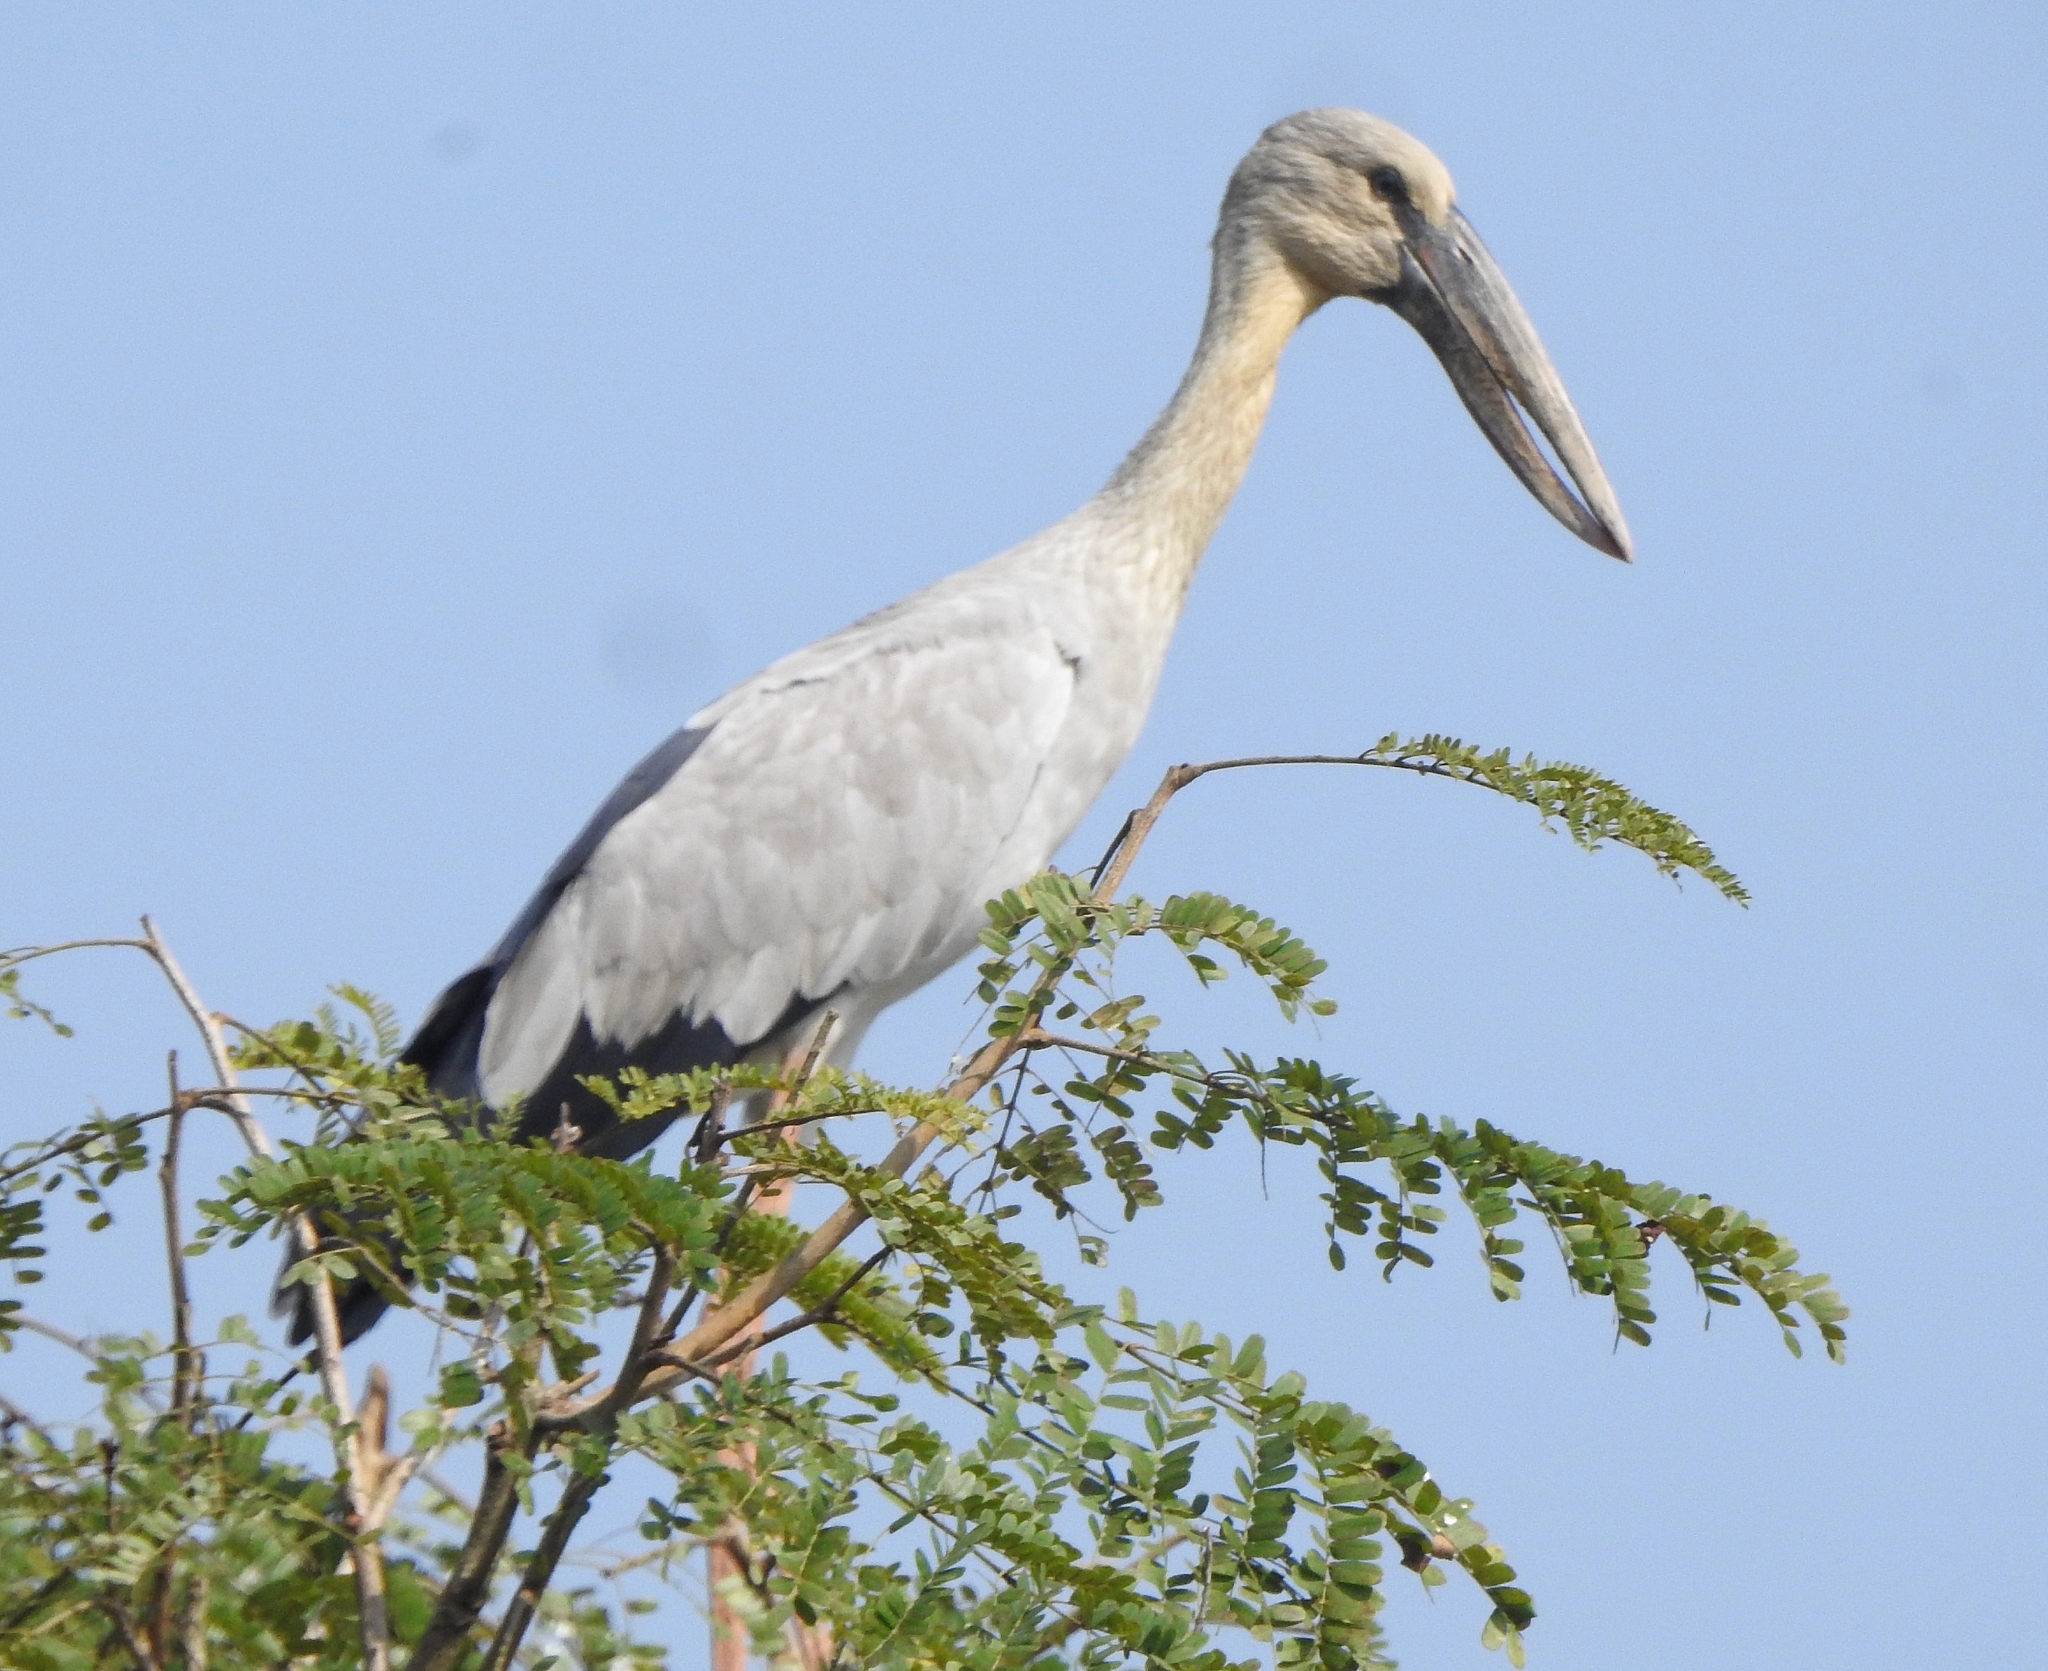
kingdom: Animalia
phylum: Chordata
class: Aves
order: Ciconiiformes
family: Ciconiidae
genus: Anastomus
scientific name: Anastomus oscitans
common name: Asian openbill
